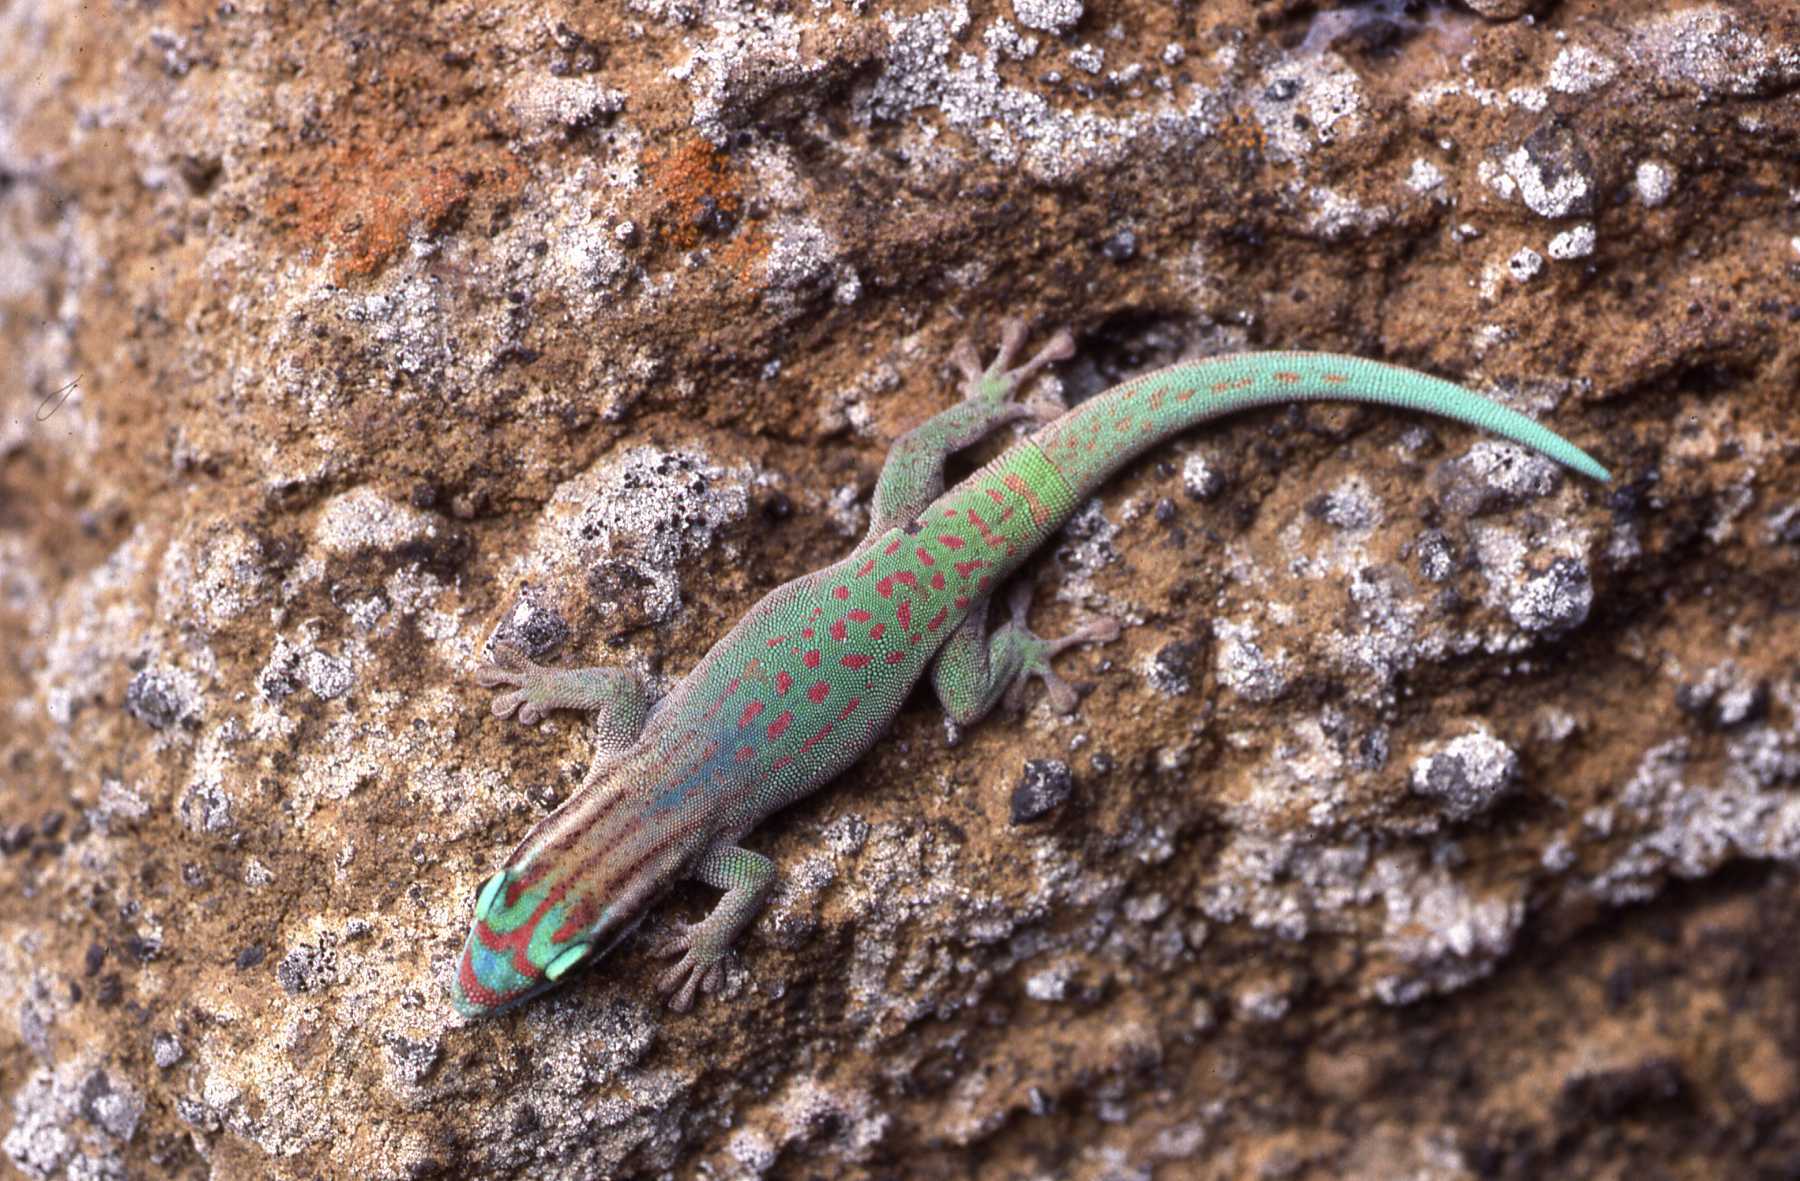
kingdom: Animalia
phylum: Chordata
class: Squamata
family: Gekkonidae
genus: Phelsuma
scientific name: Phelsuma ornata
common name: Ornate day gecko
